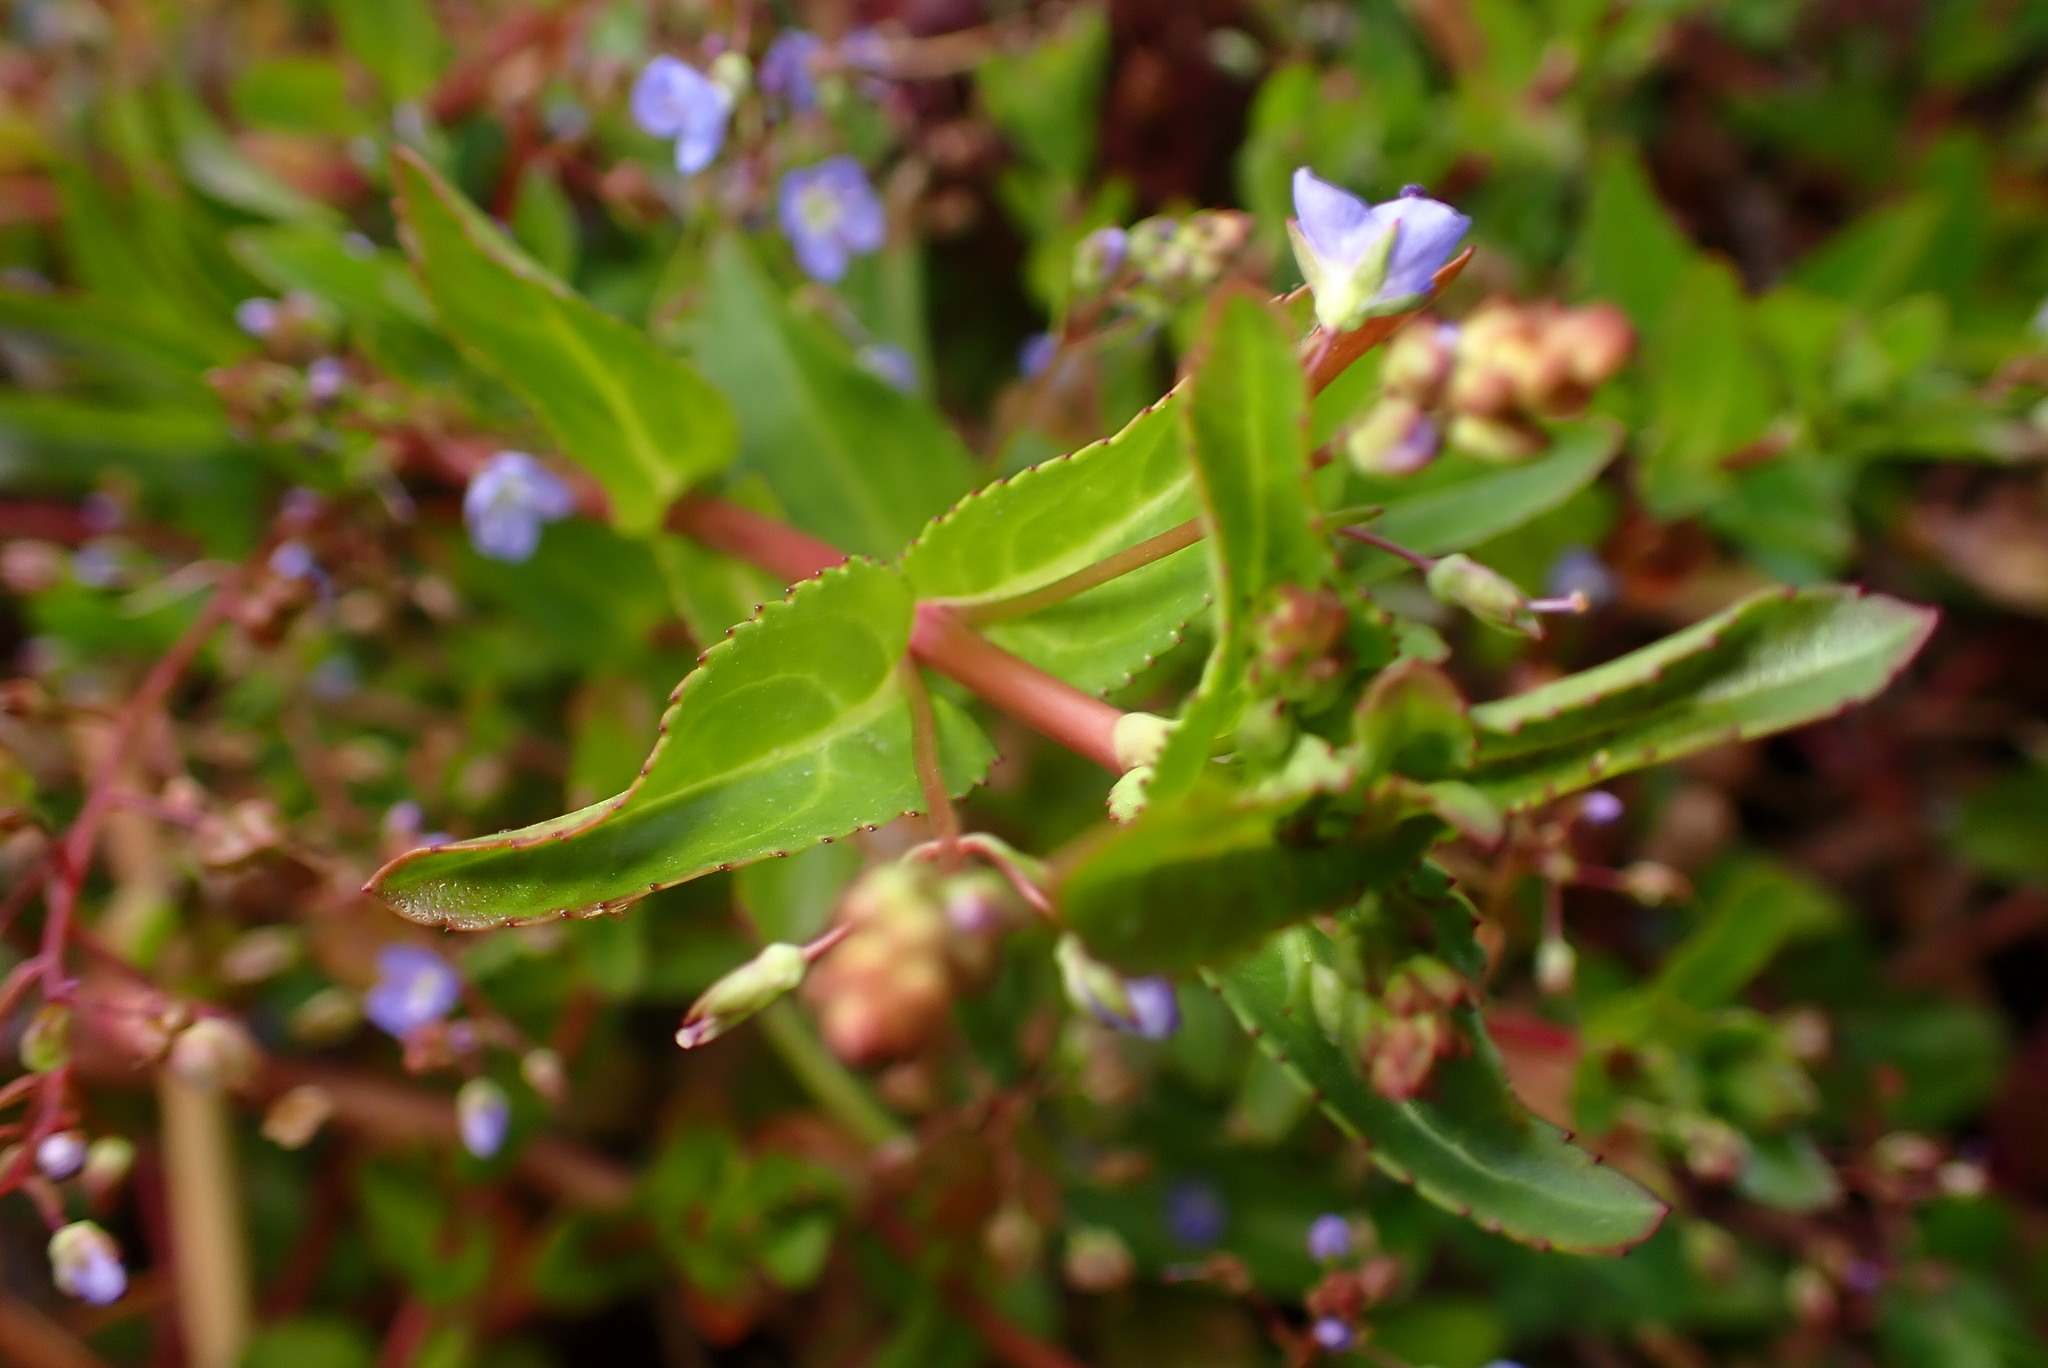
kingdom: Plantae
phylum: Tracheophyta
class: Magnoliopsida
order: Lamiales
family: Plantaginaceae
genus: Veronica
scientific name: Veronica americana
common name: American brooklime
